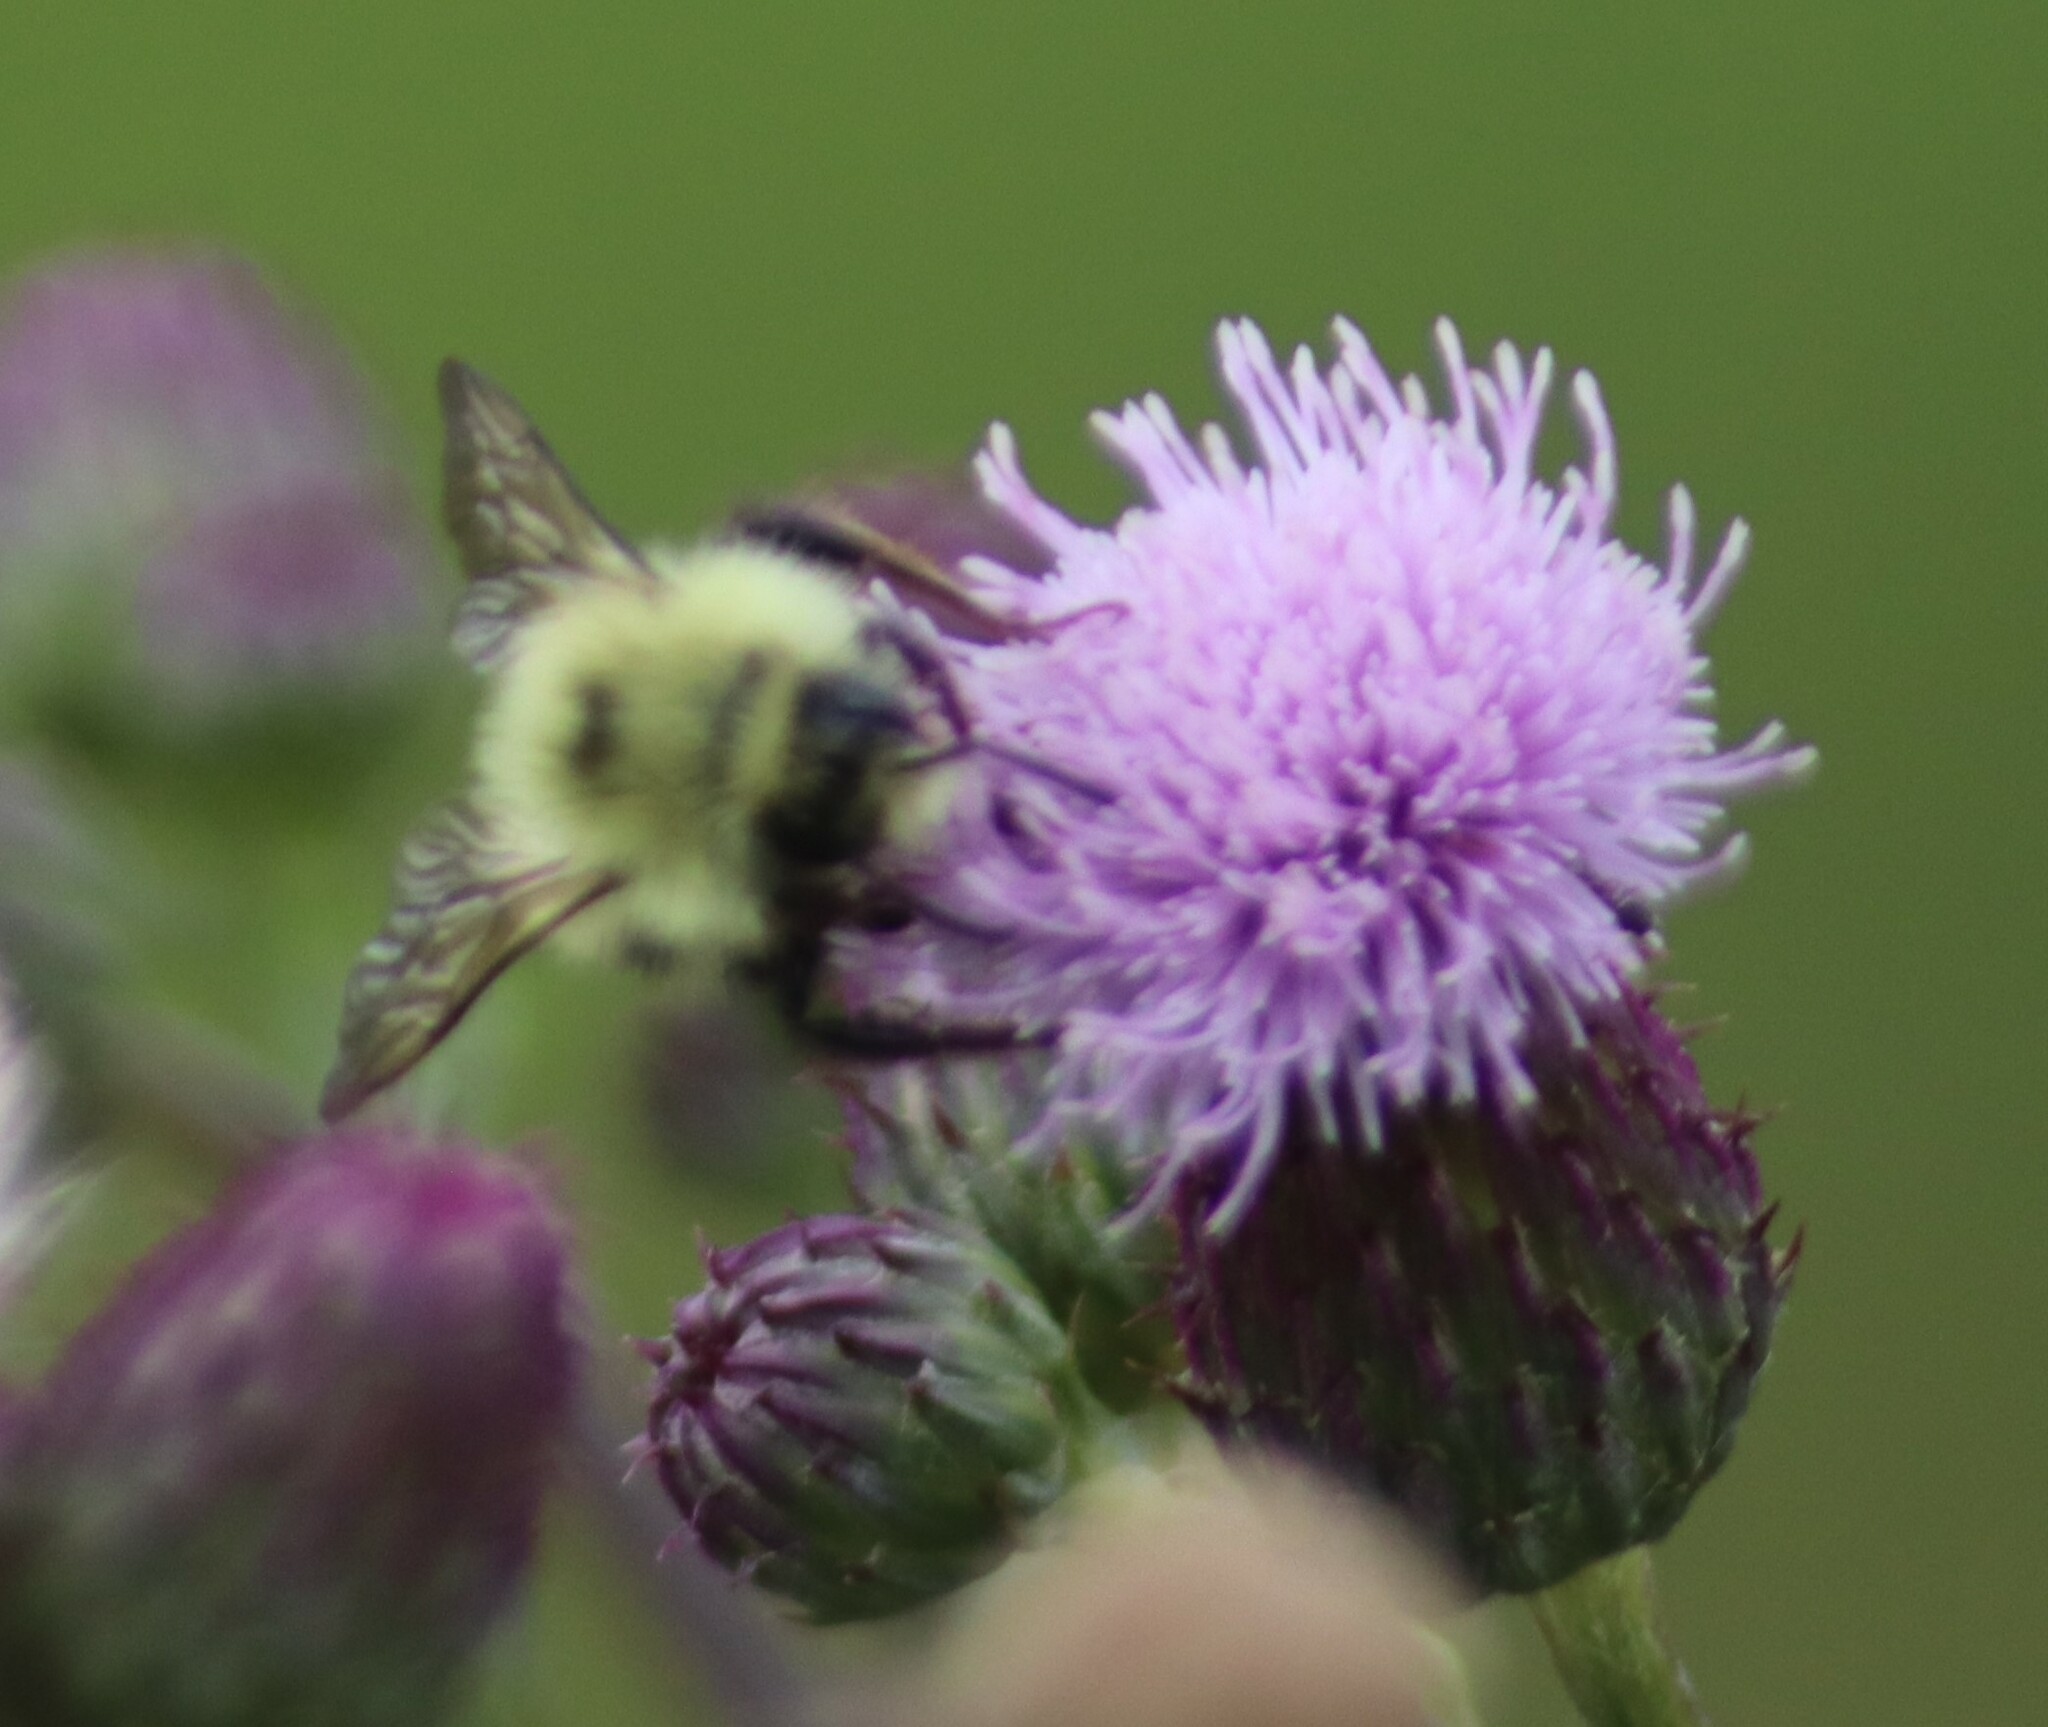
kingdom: Animalia
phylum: Arthropoda
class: Insecta
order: Hymenoptera
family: Apidae
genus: Pyrobombus
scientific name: Pyrobombus
